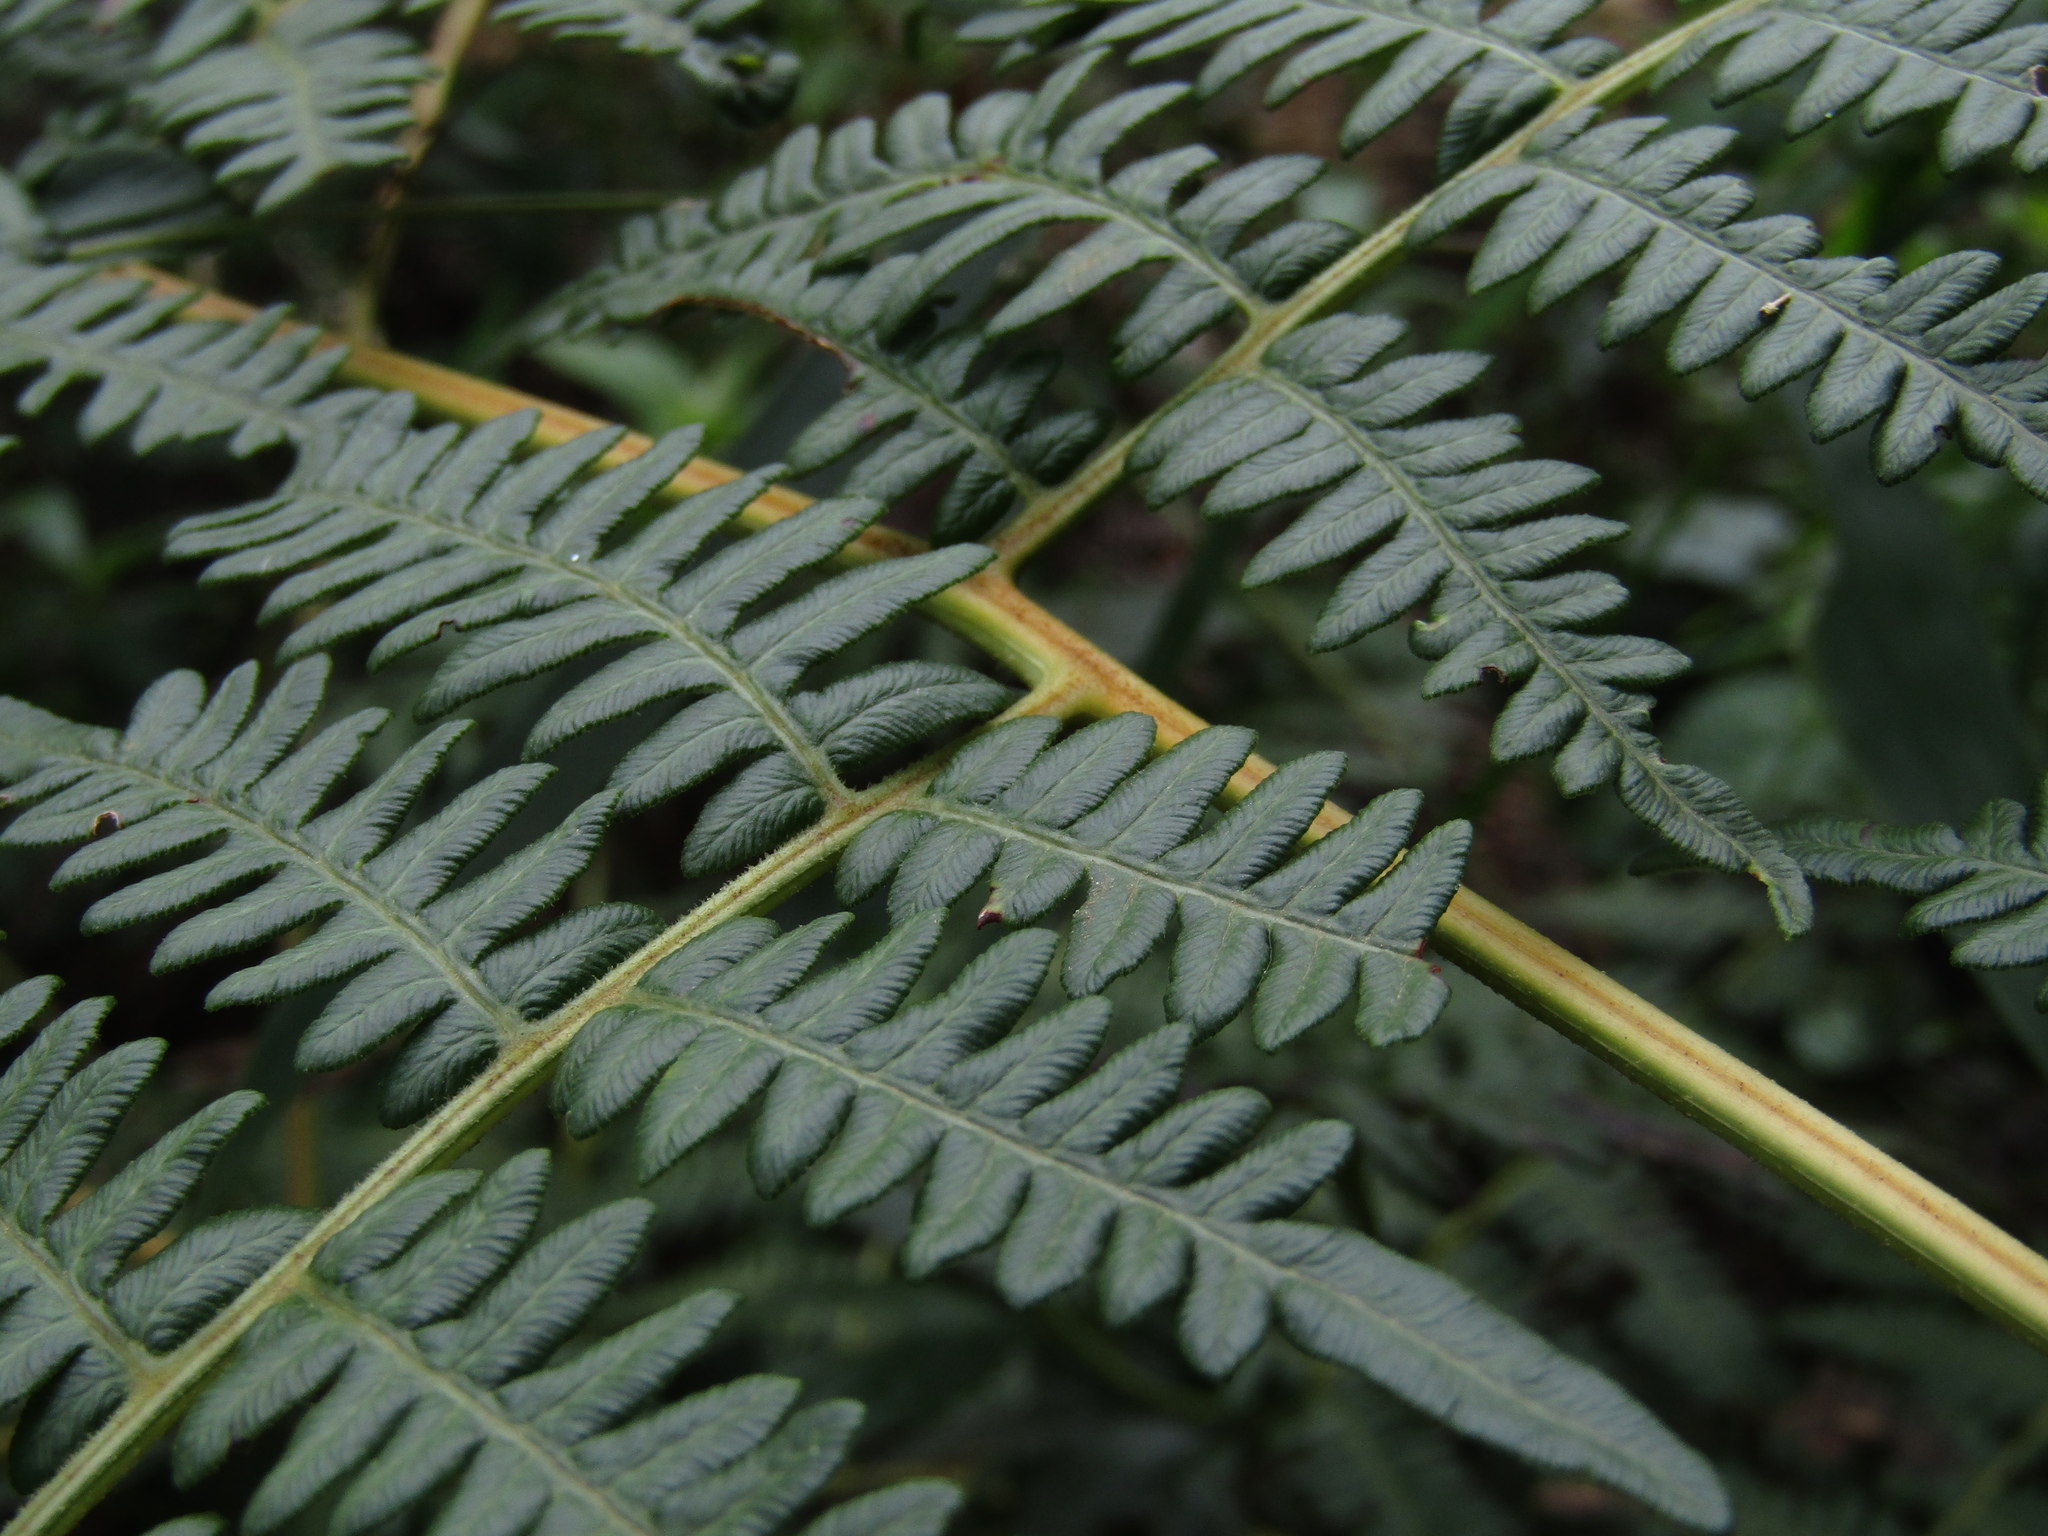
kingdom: Plantae
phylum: Tracheophyta
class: Polypodiopsida
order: Polypodiales
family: Dennstaedtiaceae
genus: Pteridium
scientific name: Pteridium esculentum
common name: Bracken fern
